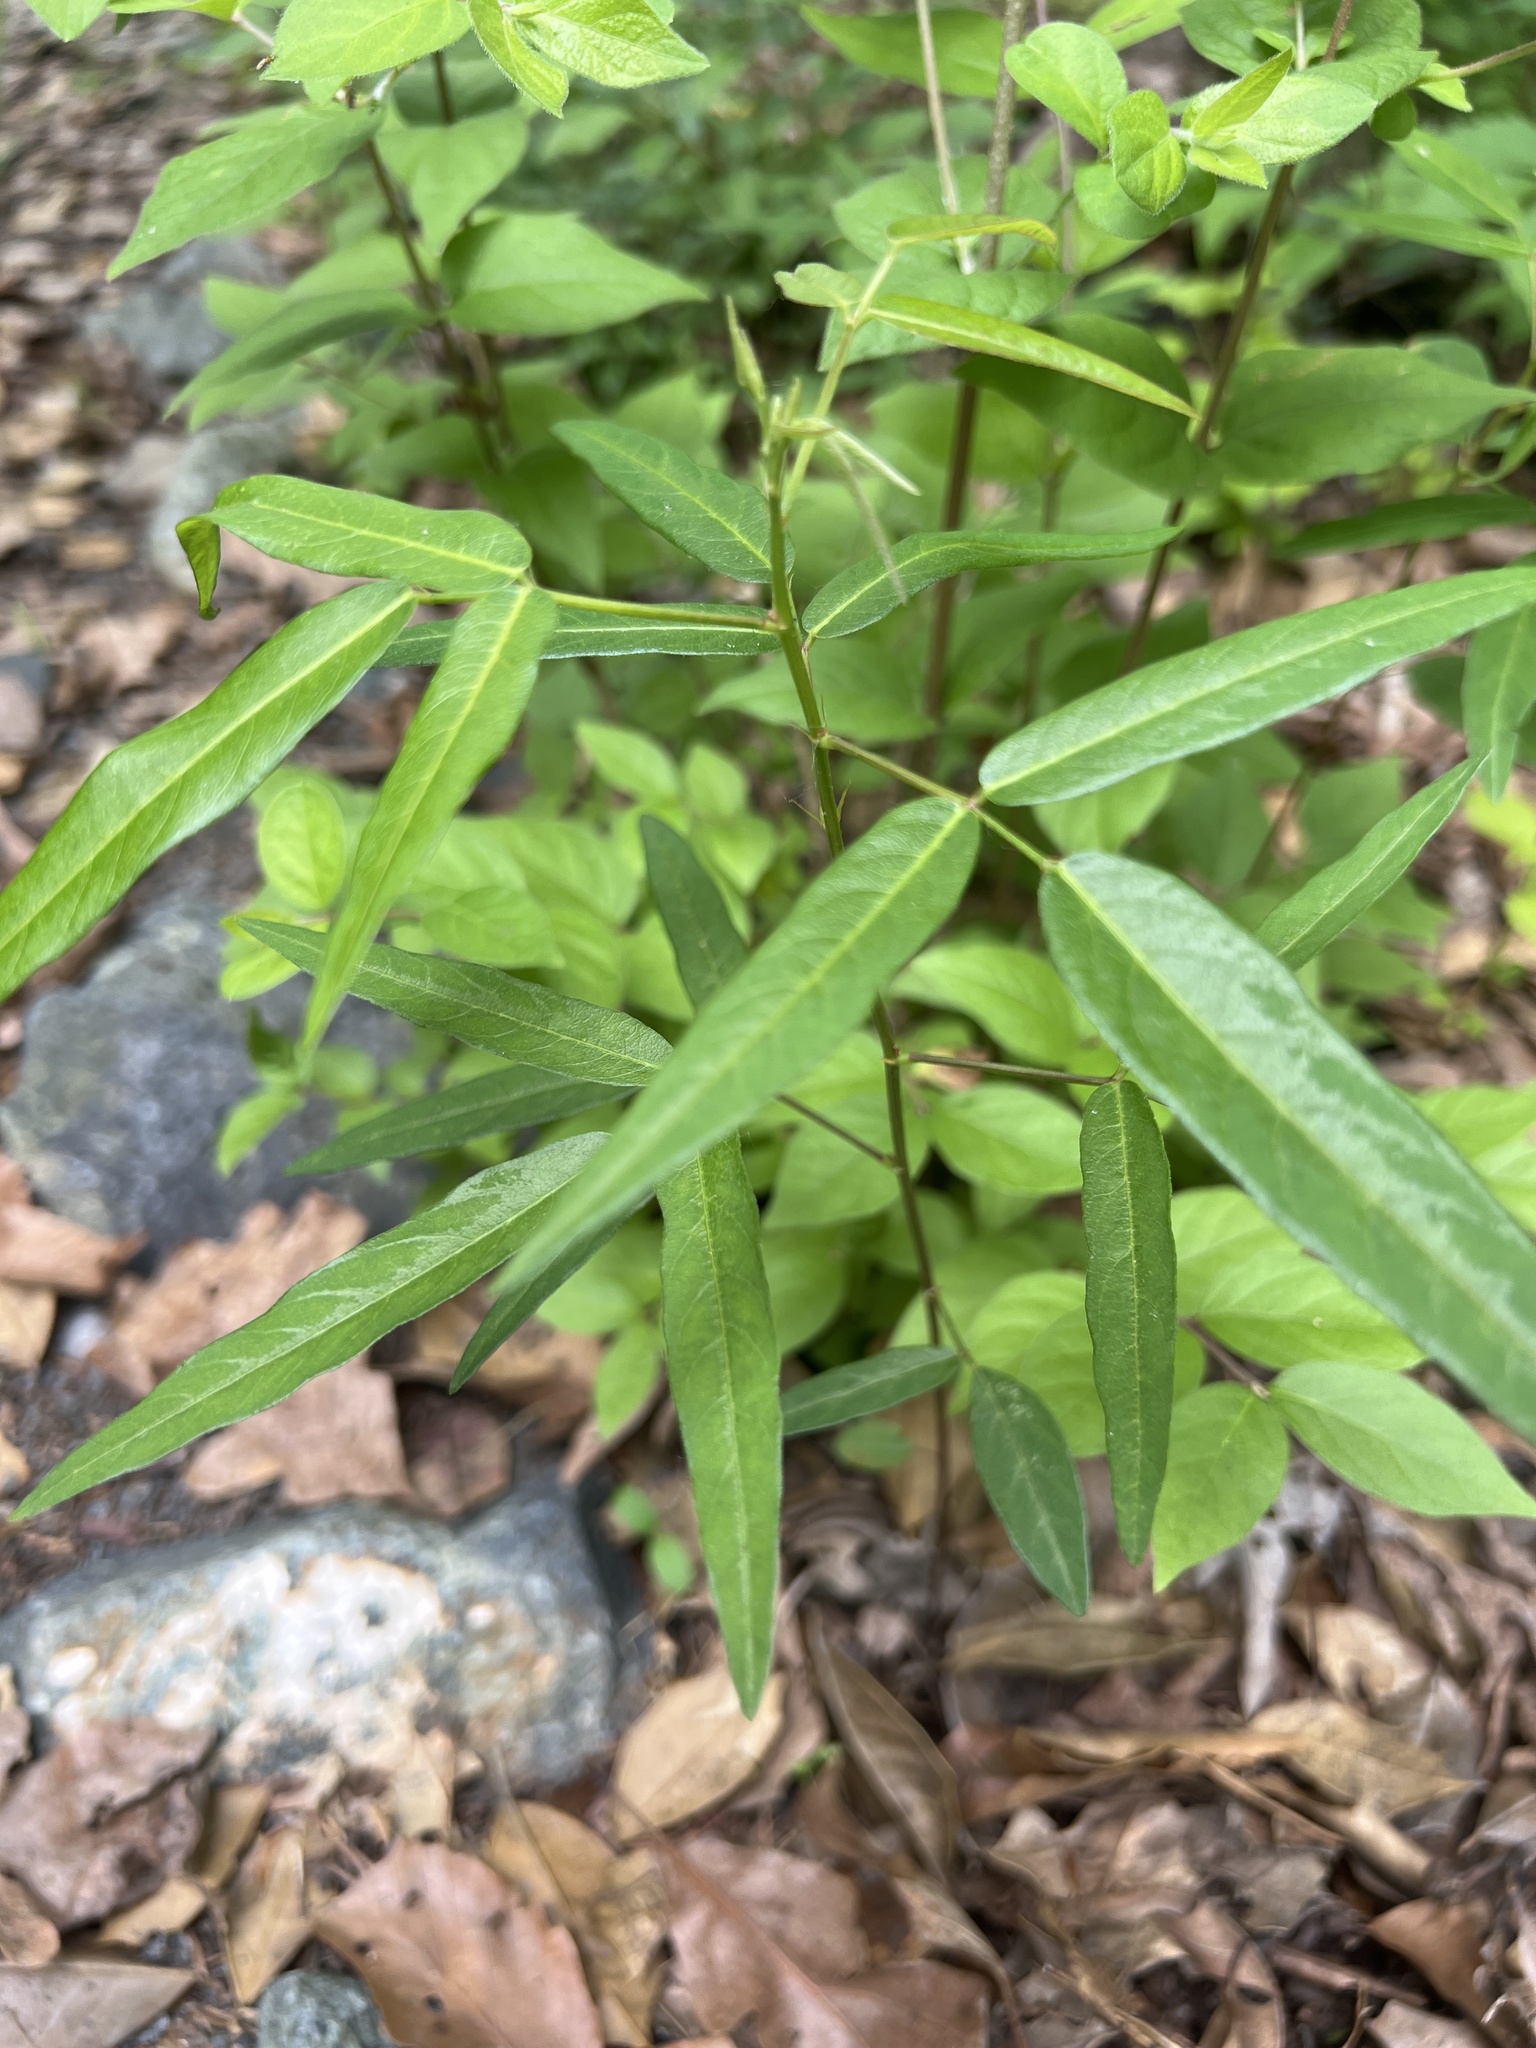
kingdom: Plantae
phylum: Tracheophyta
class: Magnoliopsida
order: Fabales
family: Fabaceae
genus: Desmodium
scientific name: Desmodium paniculatum
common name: Panicled tick-clover
